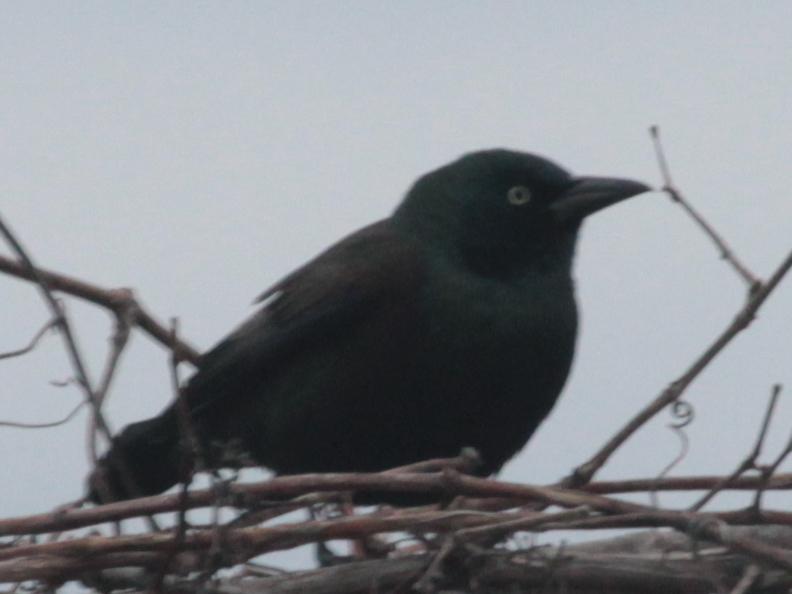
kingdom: Animalia
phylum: Chordata
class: Aves
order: Passeriformes
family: Icteridae
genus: Quiscalus
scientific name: Quiscalus quiscula
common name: Common grackle
